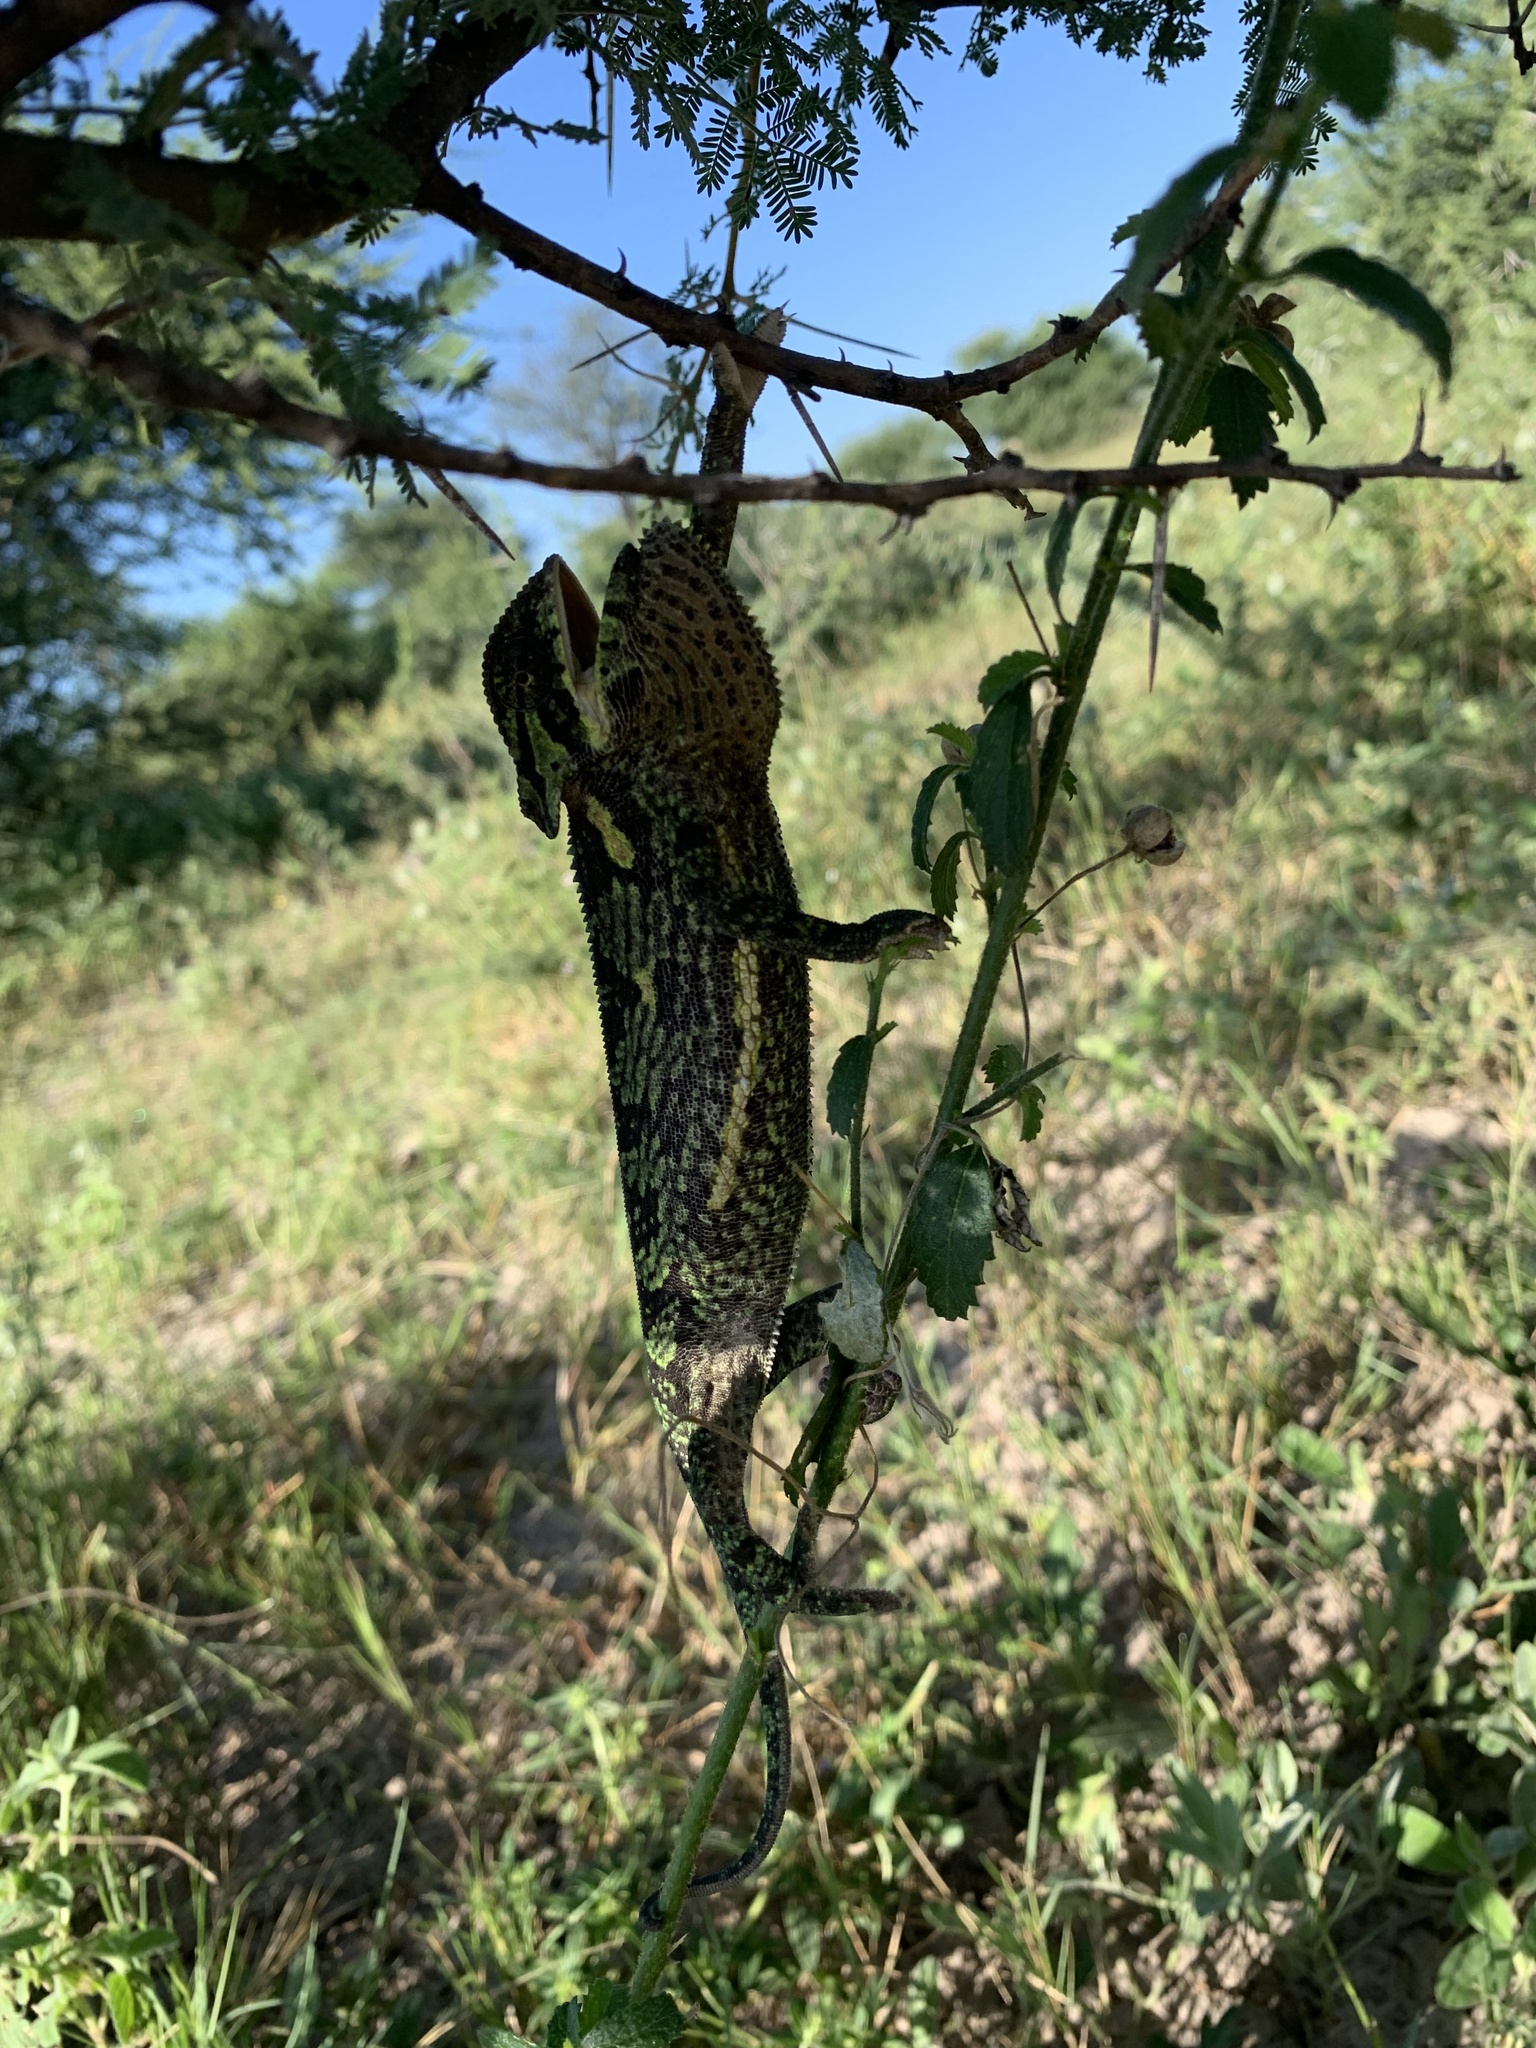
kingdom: Animalia
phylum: Chordata
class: Squamata
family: Chamaeleonidae
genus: Chamaeleo
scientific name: Chamaeleo dilepis
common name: Flapneck chameleon
